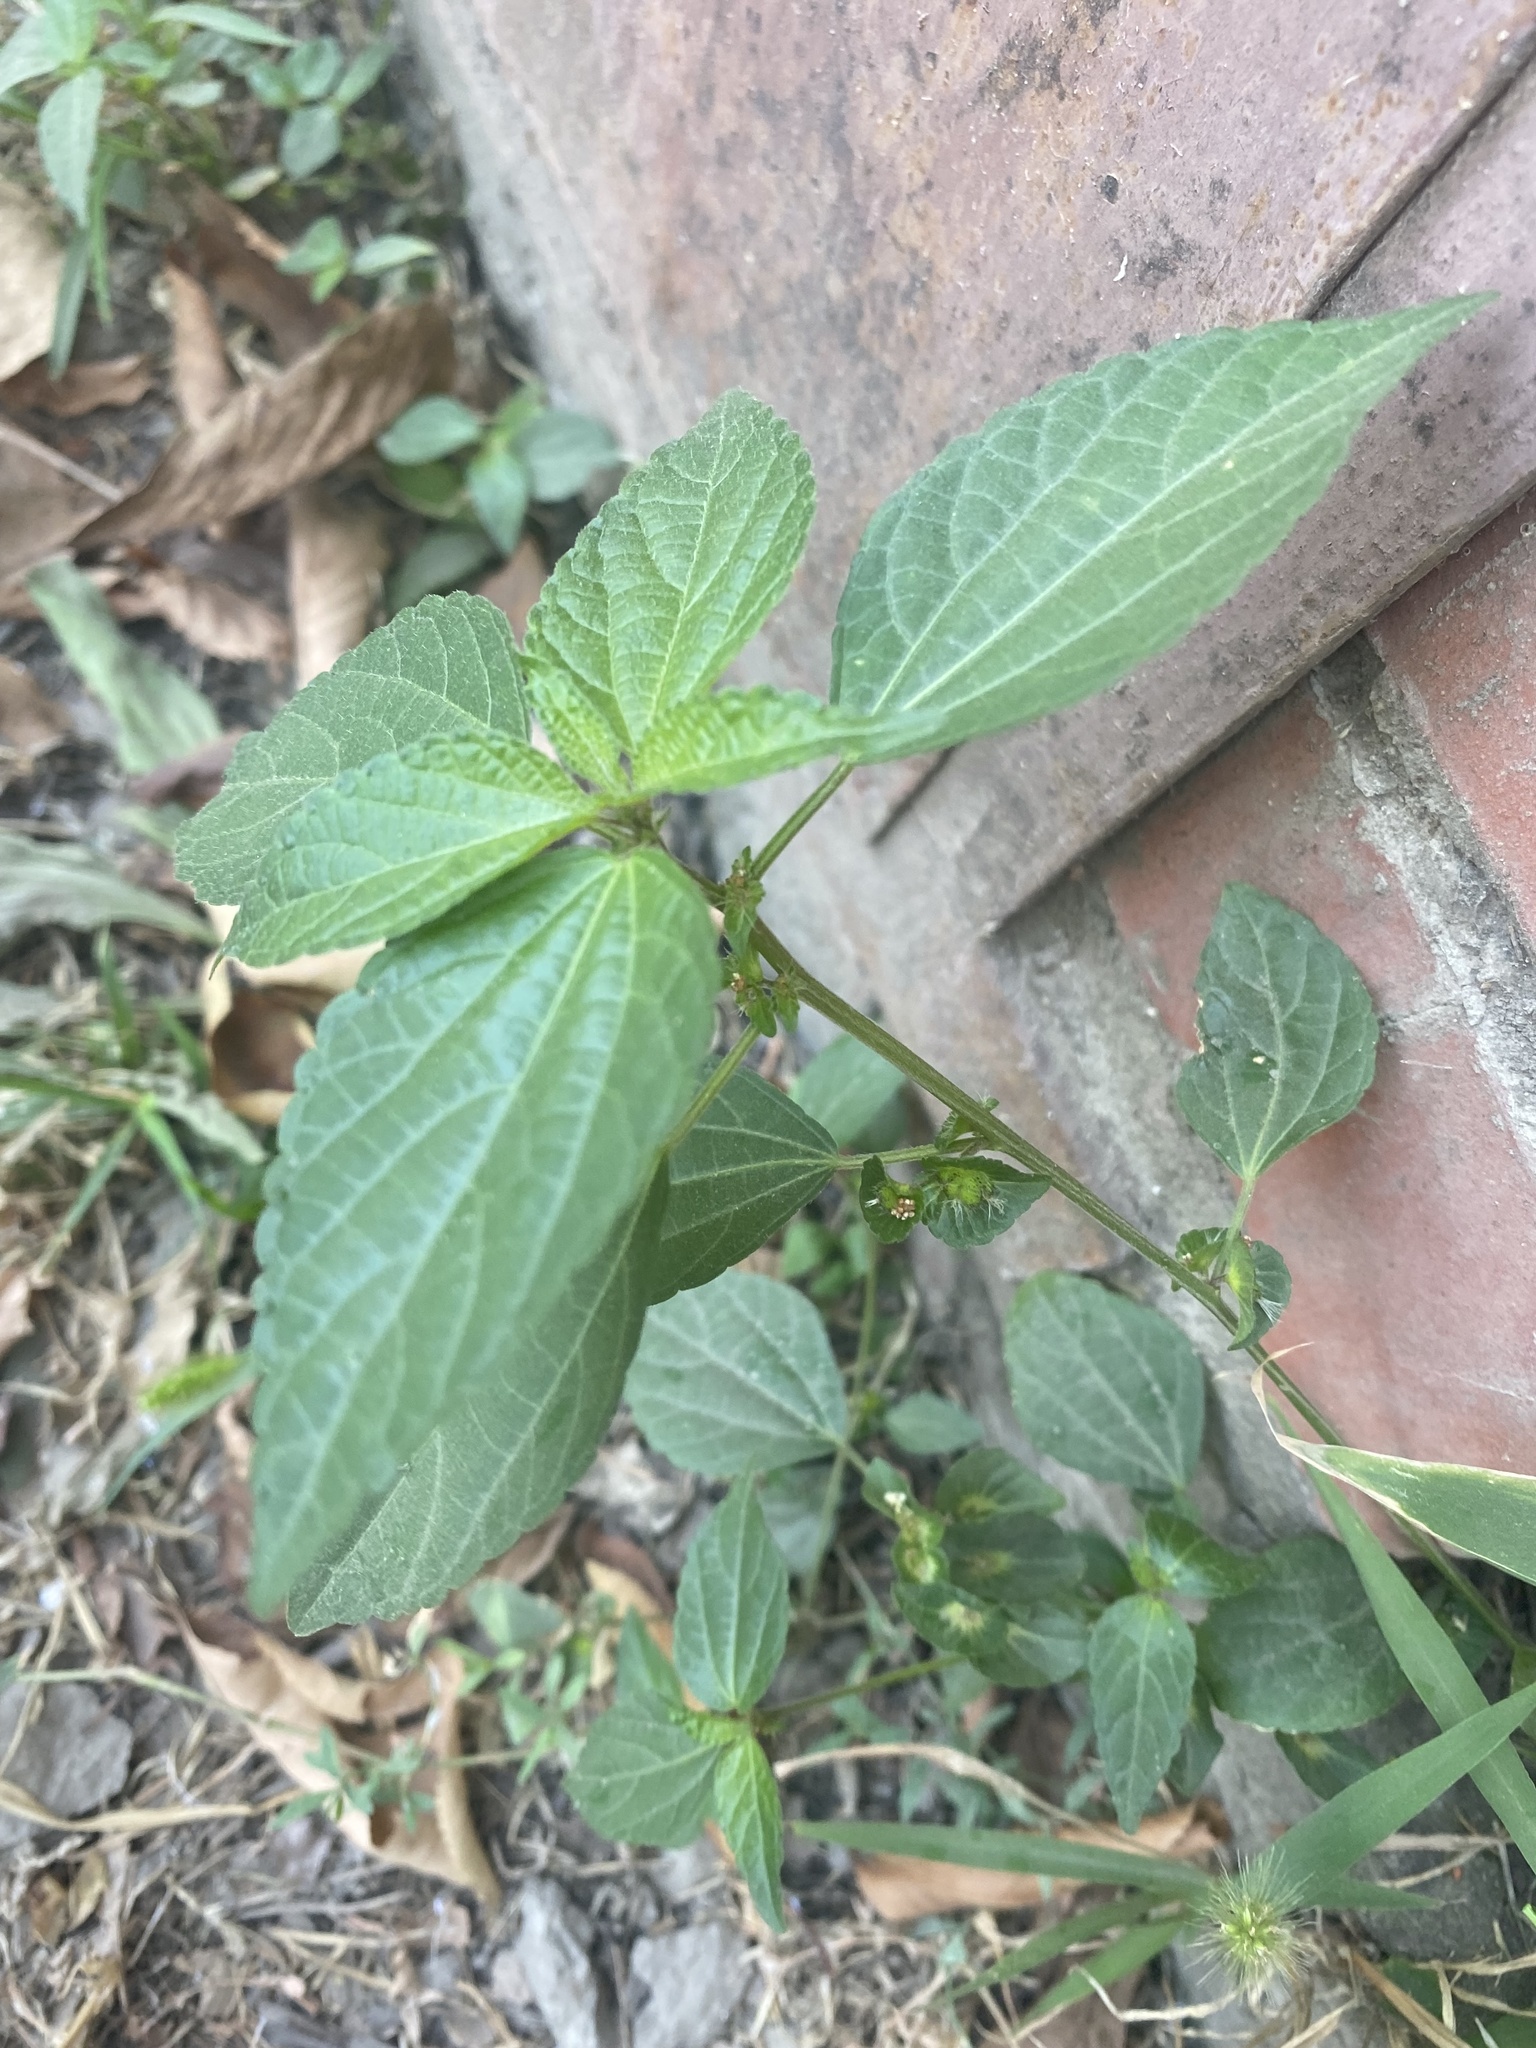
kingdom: Plantae
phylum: Tracheophyta
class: Magnoliopsida
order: Malpighiales
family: Euphorbiaceae
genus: Acalypha
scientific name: Acalypha australis
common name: Asian copperleaf
